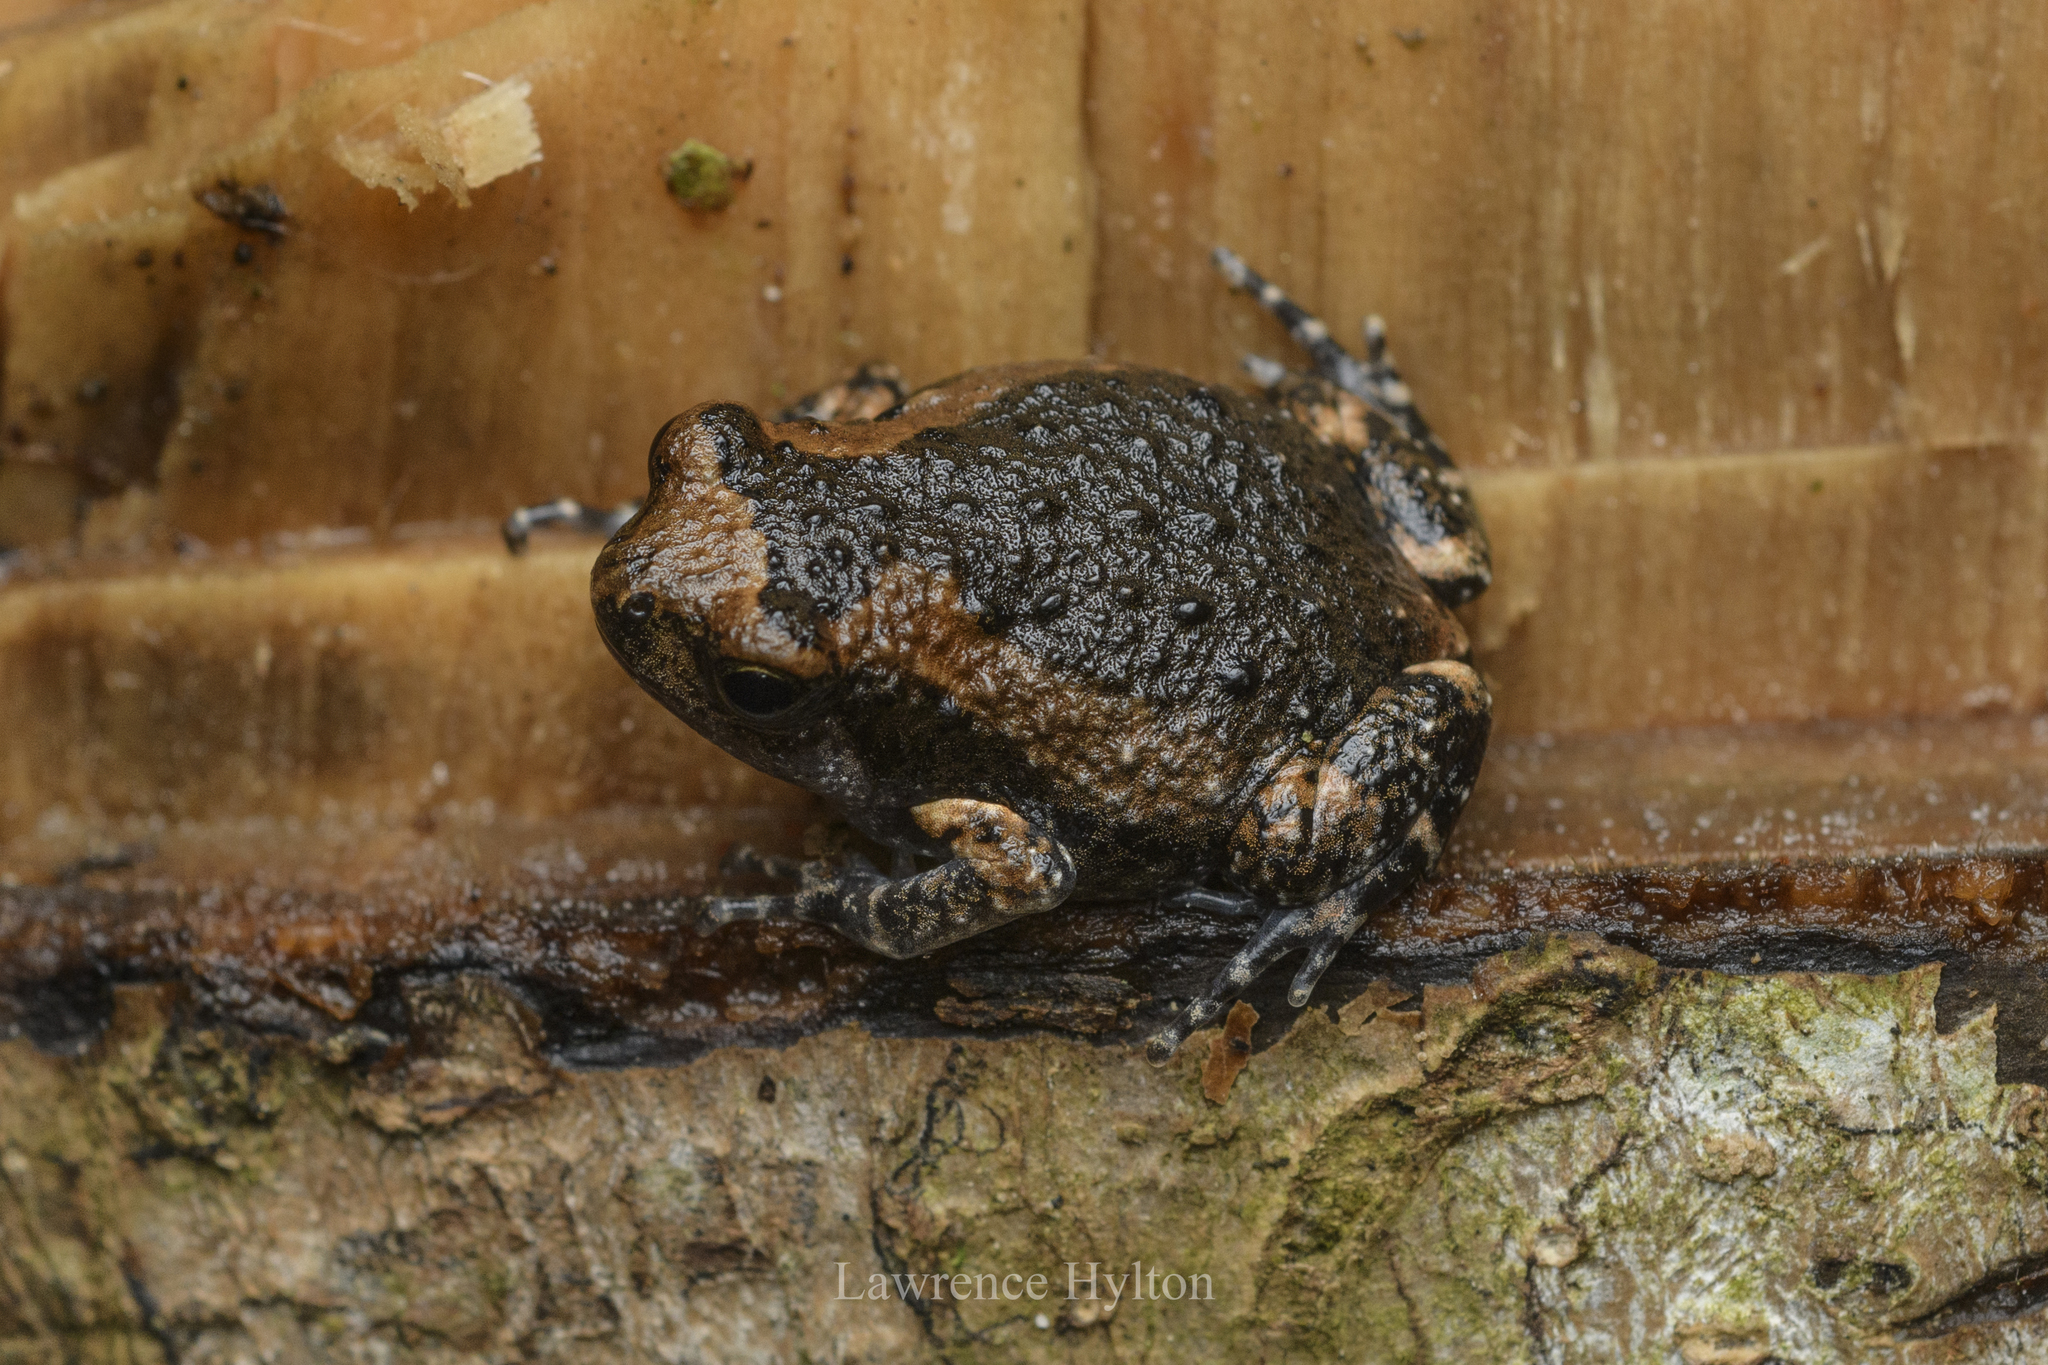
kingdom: Animalia
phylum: Chordata
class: Amphibia
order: Anura
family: Microhylidae
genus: Kaloula
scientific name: Kaloula pulchra
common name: Common,banded bullfrog
